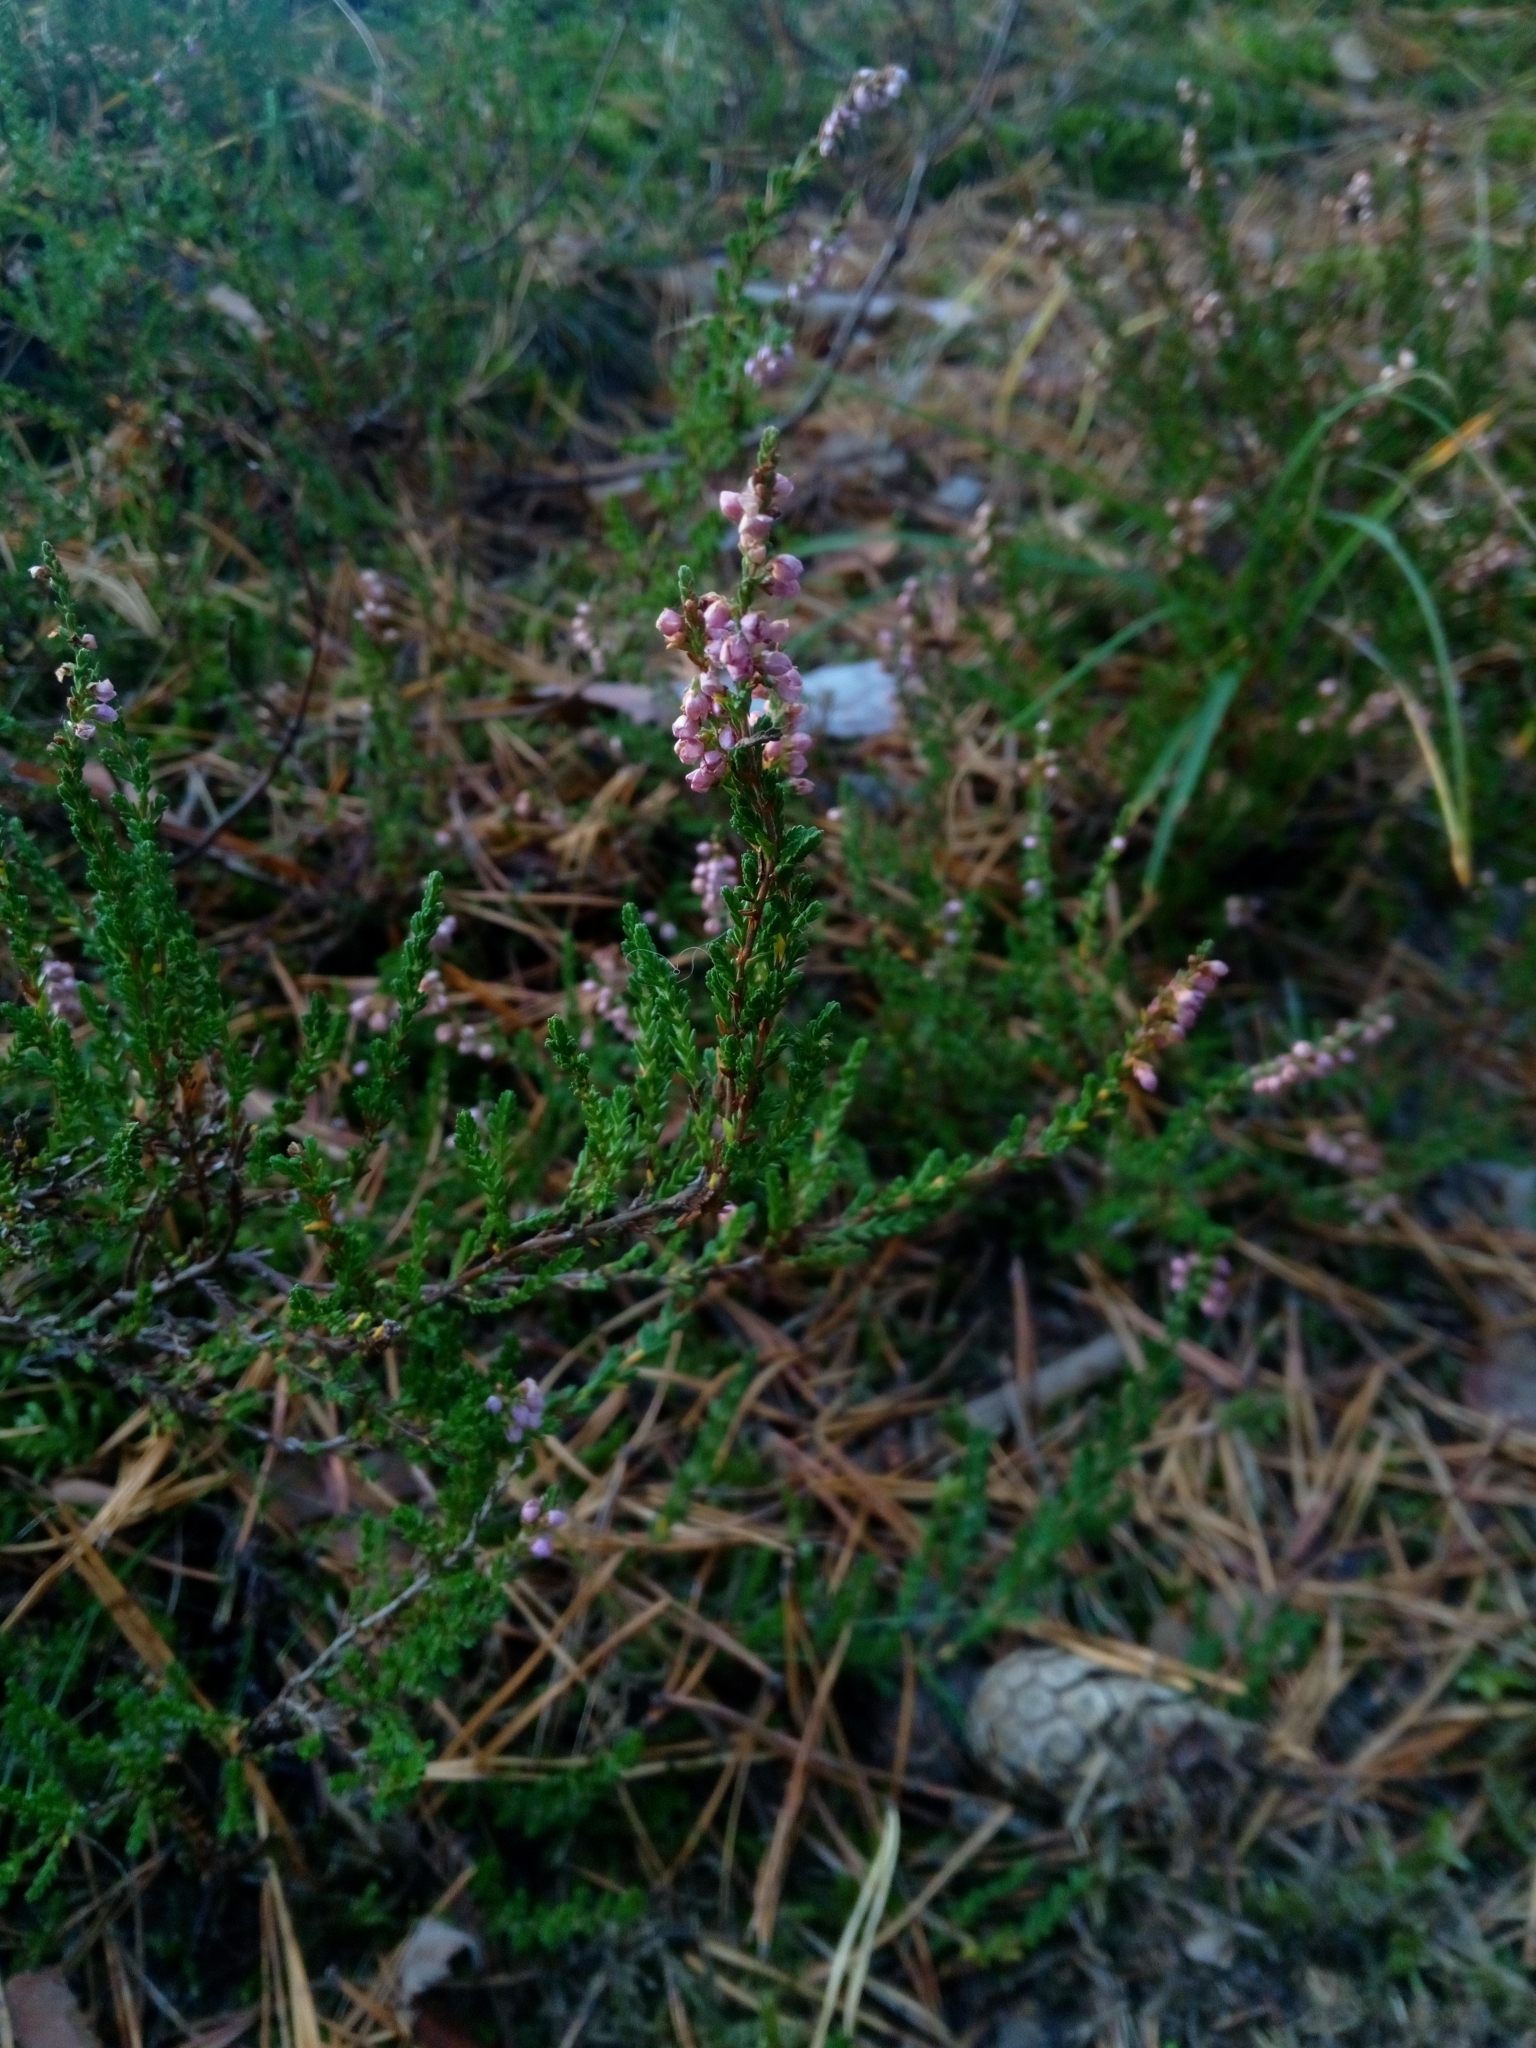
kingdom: Plantae
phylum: Tracheophyta
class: Magnoliopsida
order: Ericales
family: Ericaceae
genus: Calluna
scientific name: Calluna vulgaris
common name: Heather
